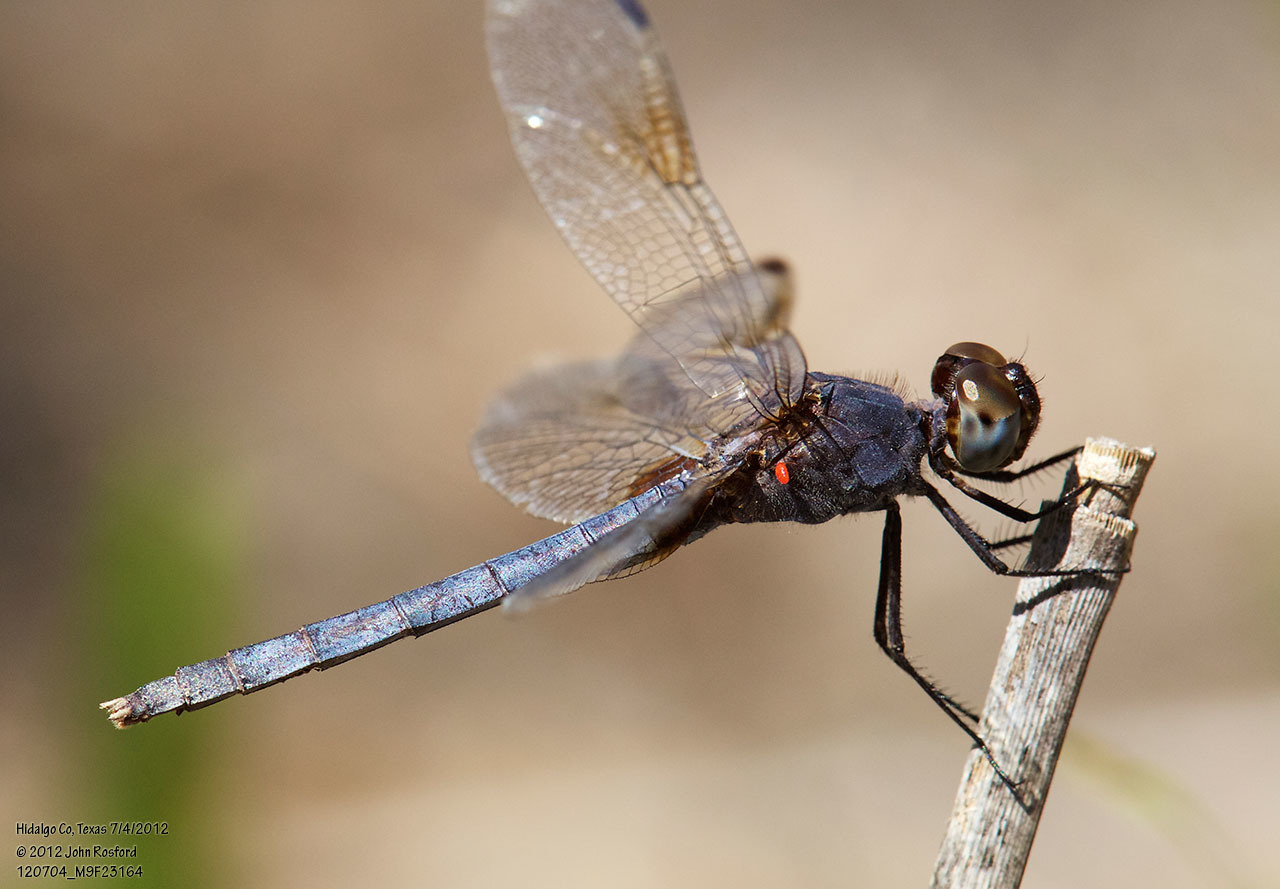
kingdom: Animalia
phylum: Arthropoda
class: Insecta
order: Odonata
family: Libellulidae
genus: Erythrodiplax
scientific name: Erythrodiplax umbrata
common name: Band-winged dragonlet
